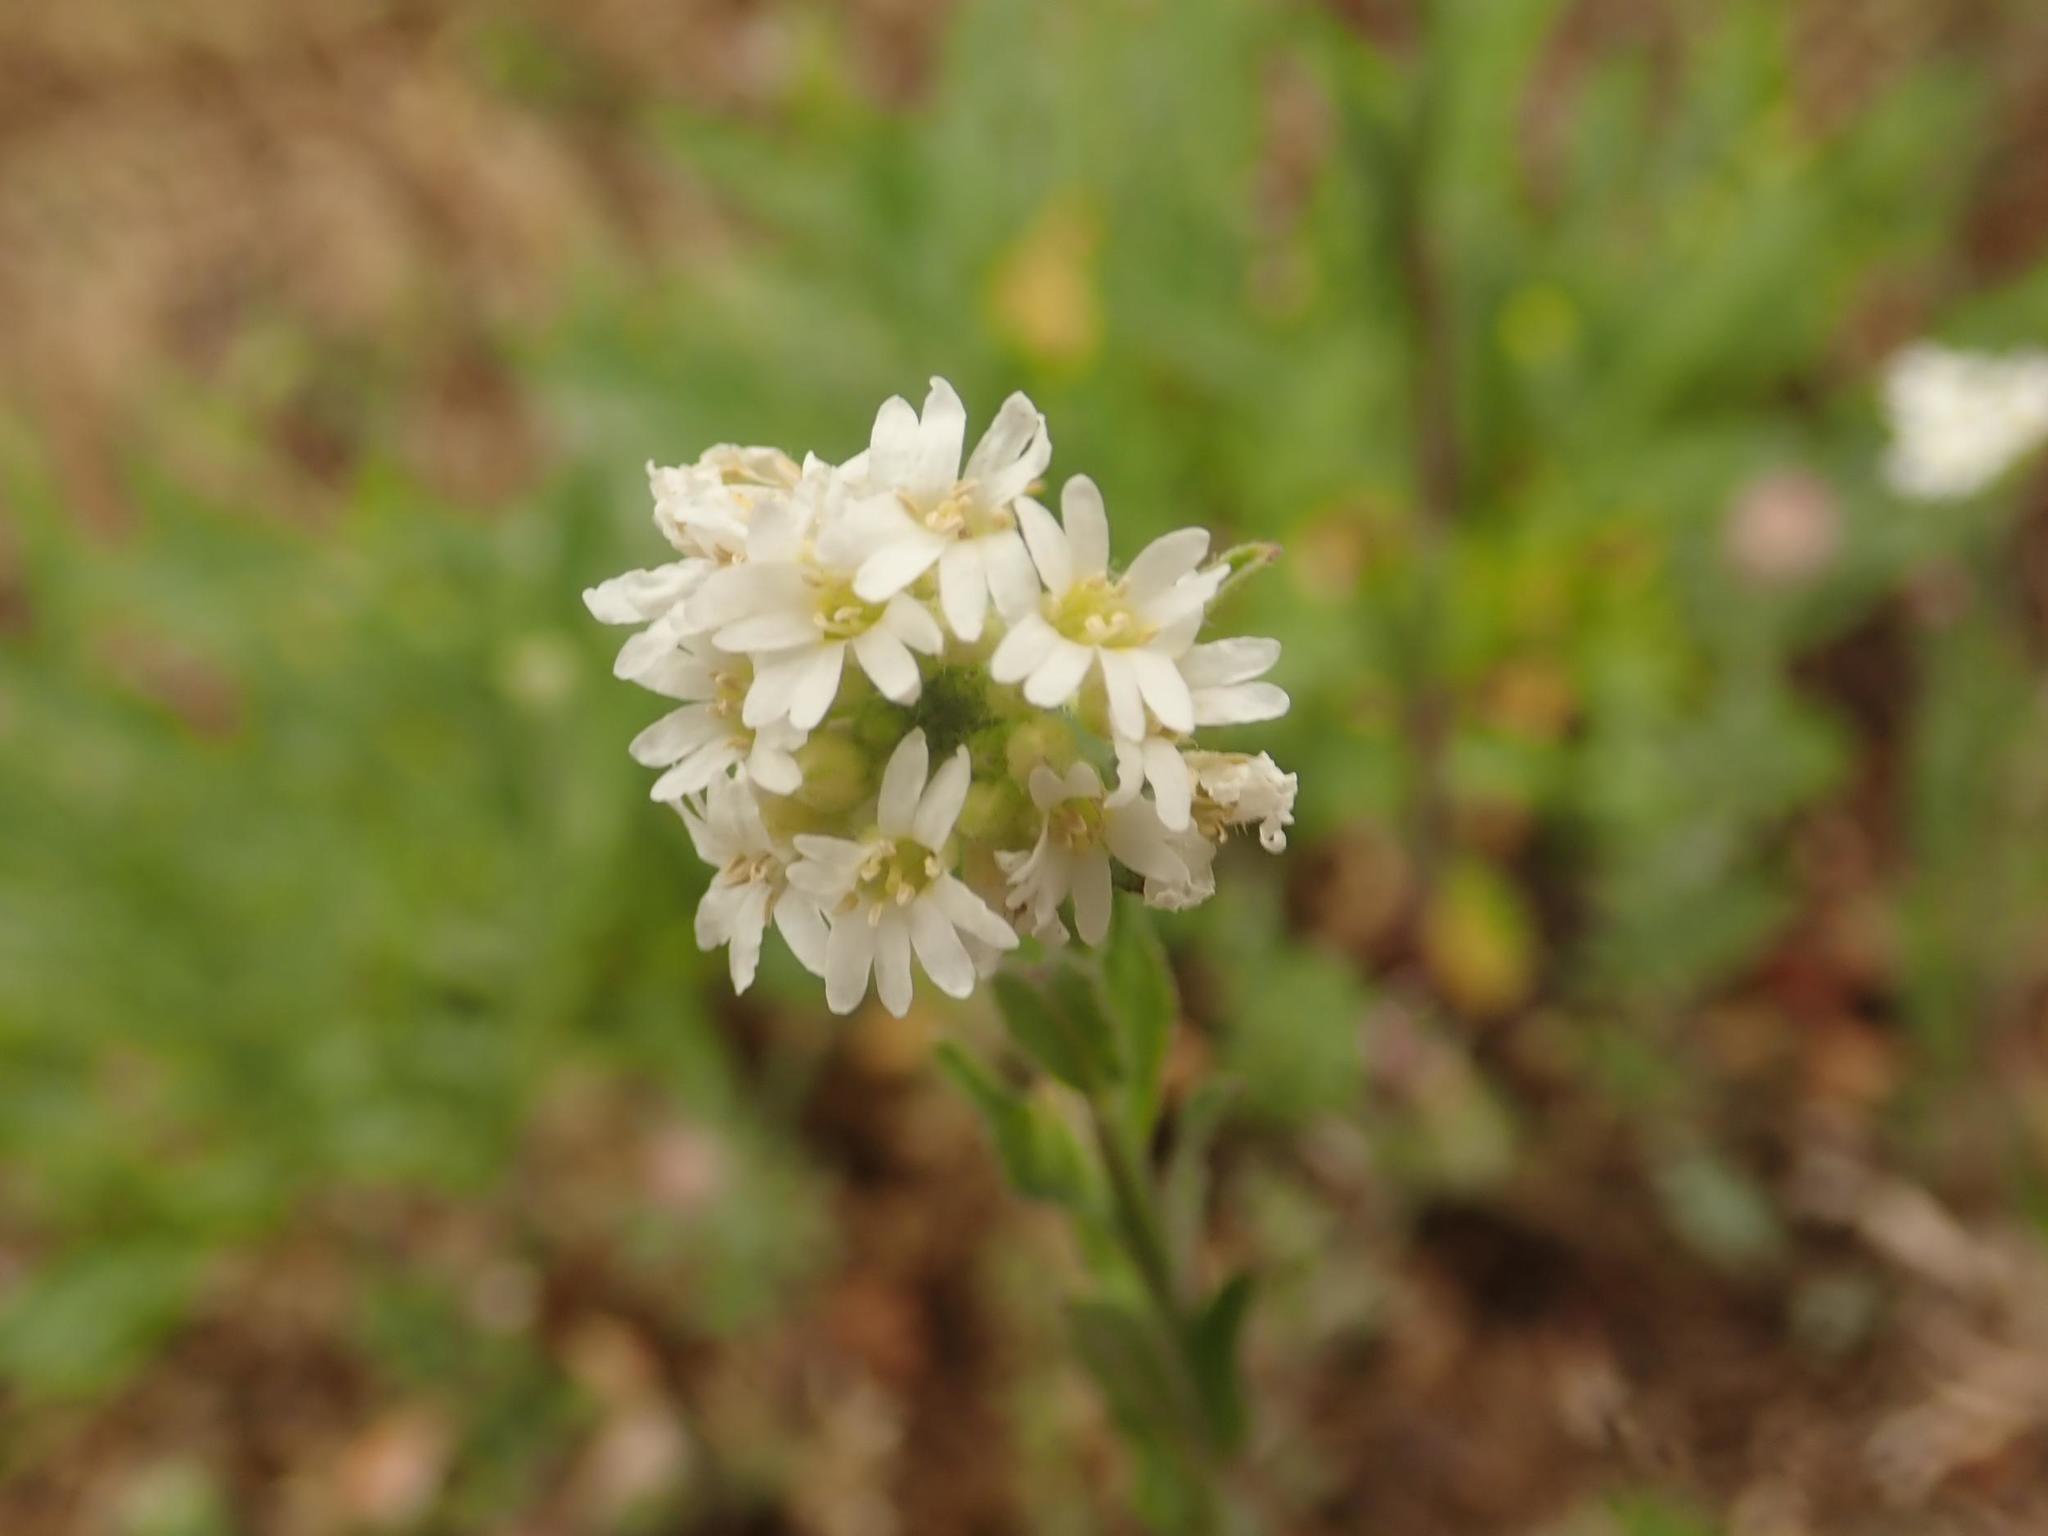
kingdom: Plantae
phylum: Tracheophyta
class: Magnoliopsida
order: Brassicales
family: Brassicaceae
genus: Berteroa
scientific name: Berteroa incana
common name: Hoary alison
